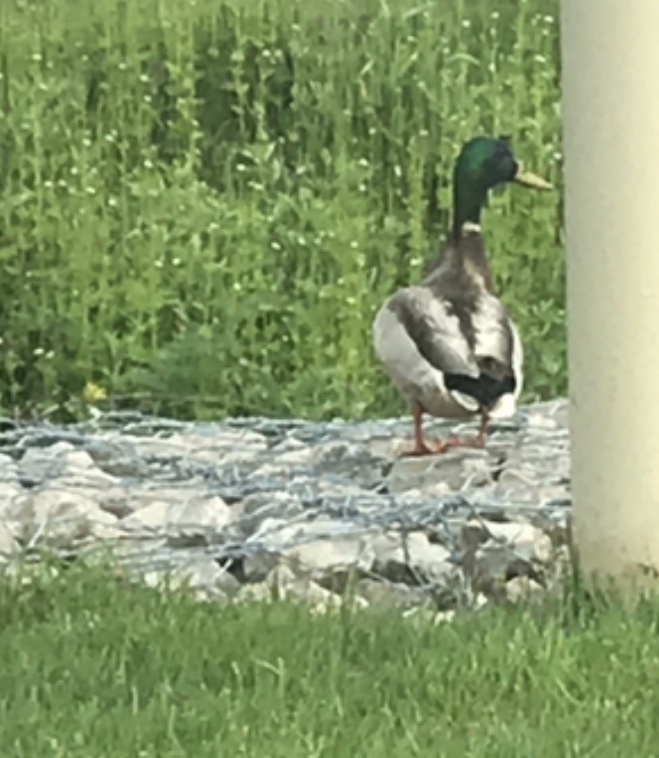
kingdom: Animalia
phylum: Chordata
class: Aves
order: Anseriformes
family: Anatidae
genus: Anas
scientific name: Anas platyrhynchos
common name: Mallard
